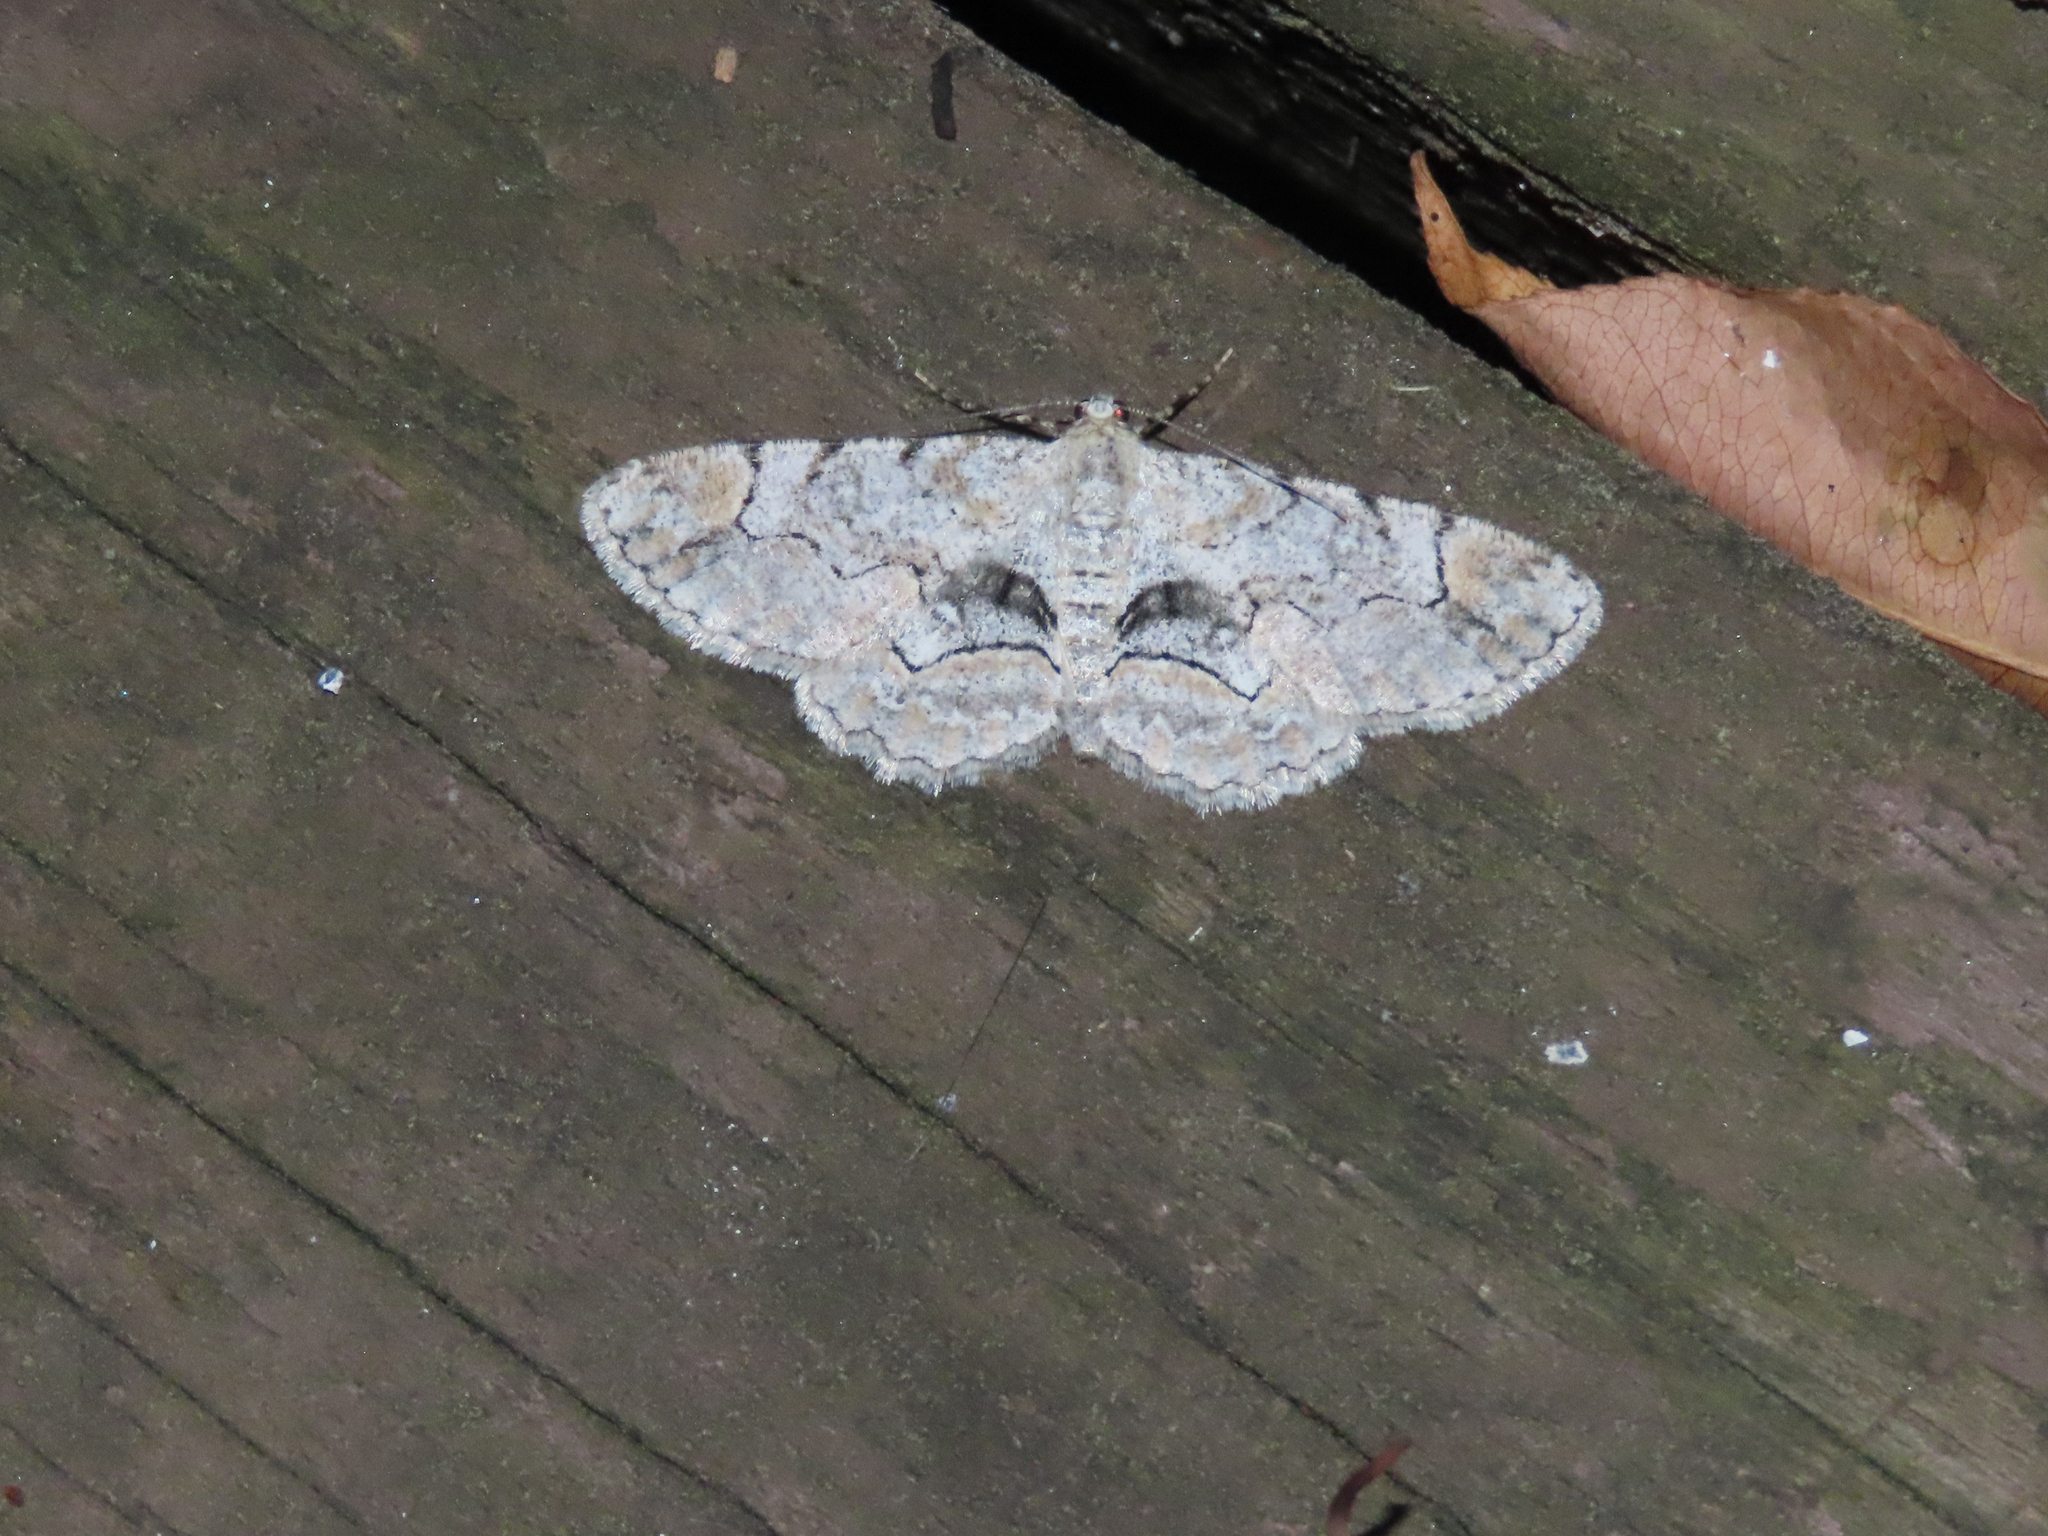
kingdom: Animalia
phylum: Arthropoda
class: Insecta
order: Lepidoptera
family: Geometridae
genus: Iridopsis
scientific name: Iridopsis larvaria
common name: Bent-line gray
